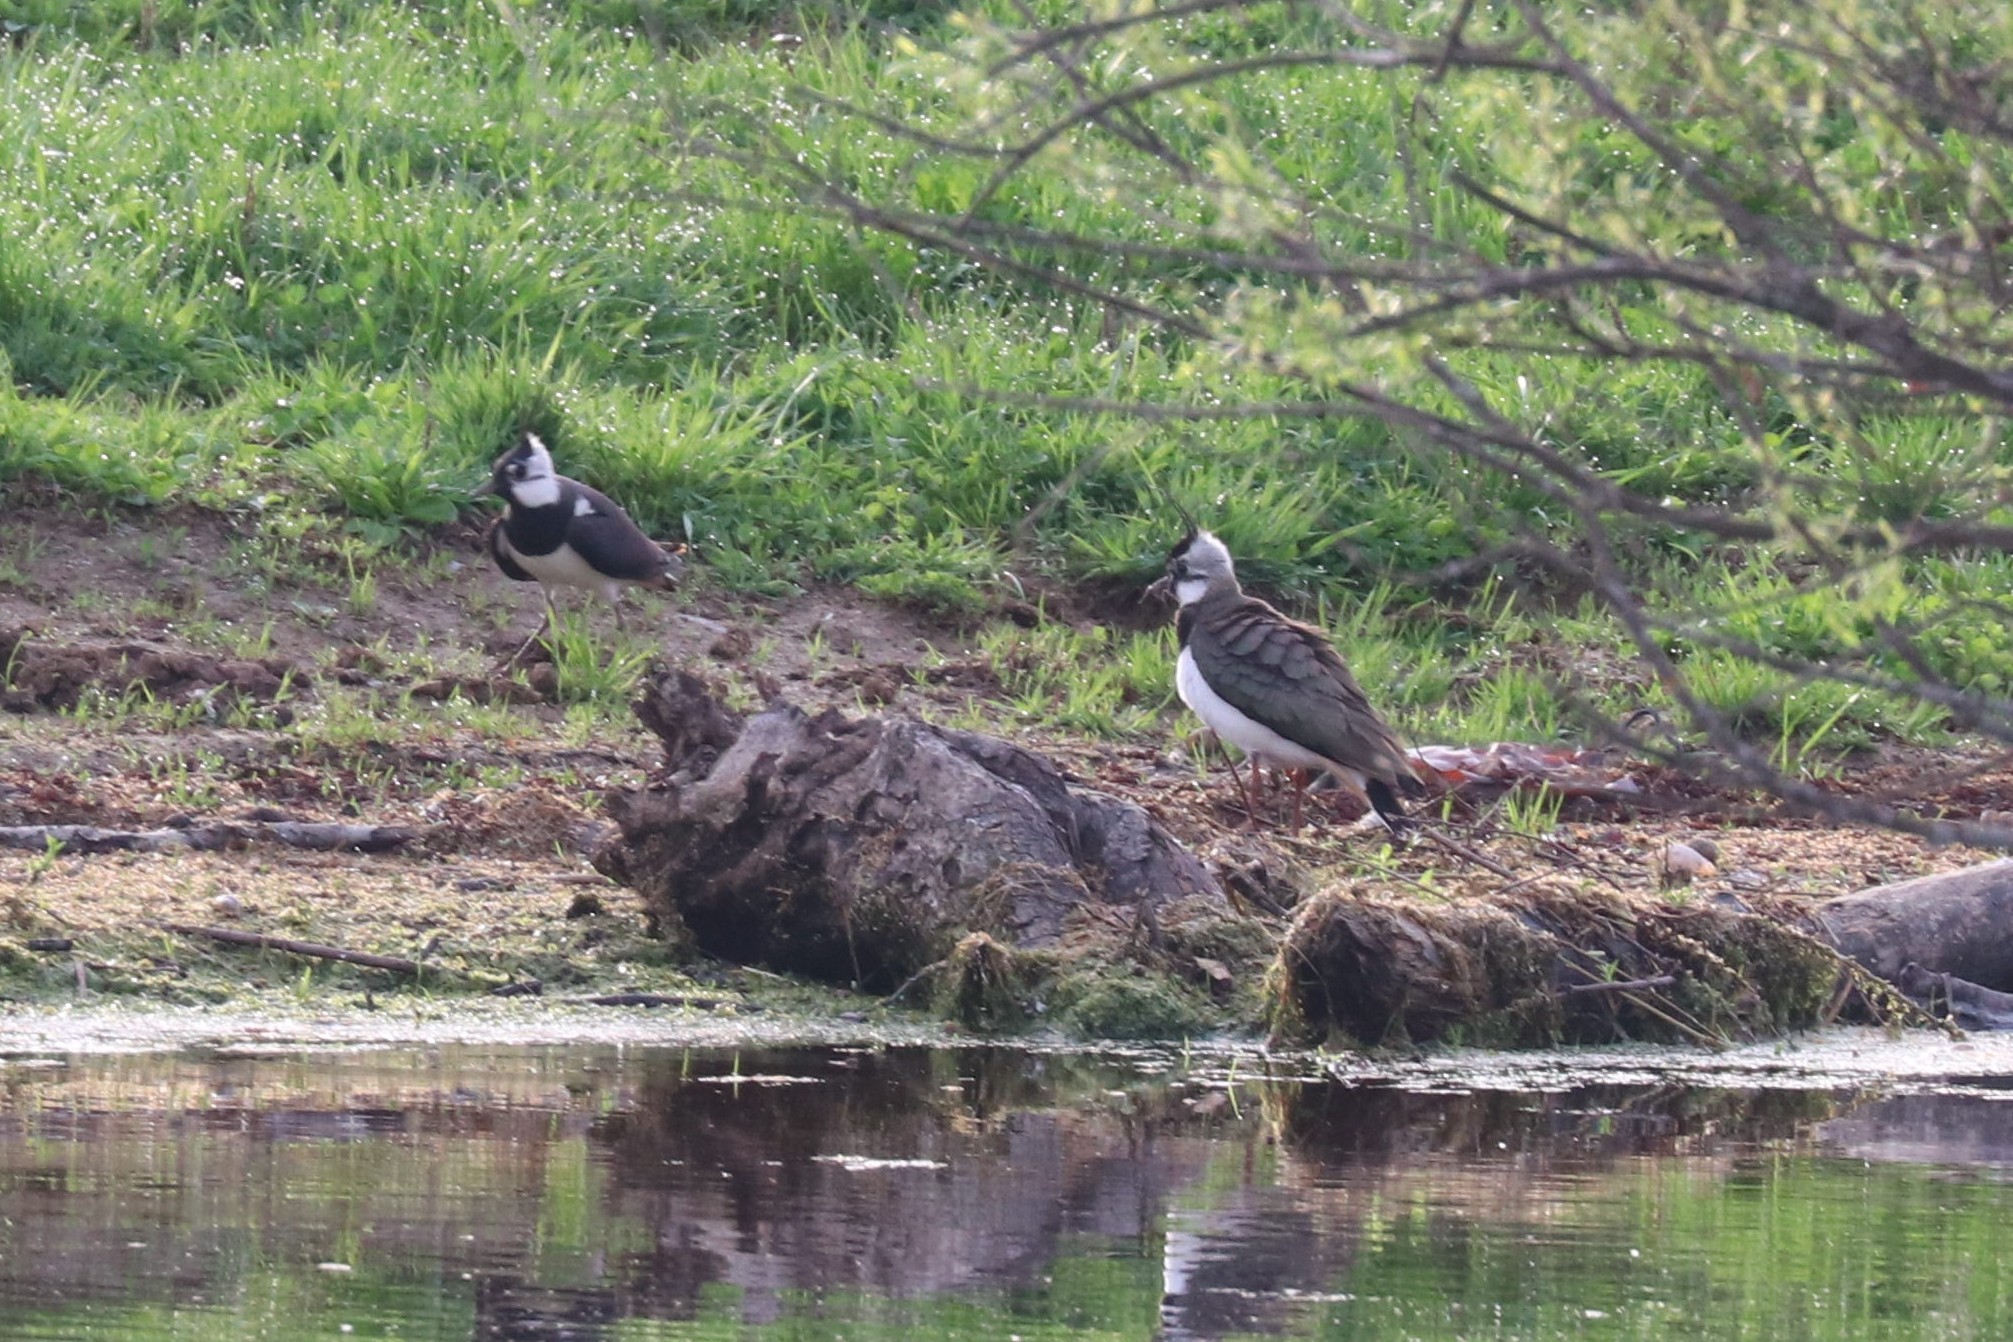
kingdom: Animalia
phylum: Chordata
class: Aves
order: Charadriiformes
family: Charadriidae
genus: Vanellus
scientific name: Vanellus vanellus
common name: Northern lapwing
